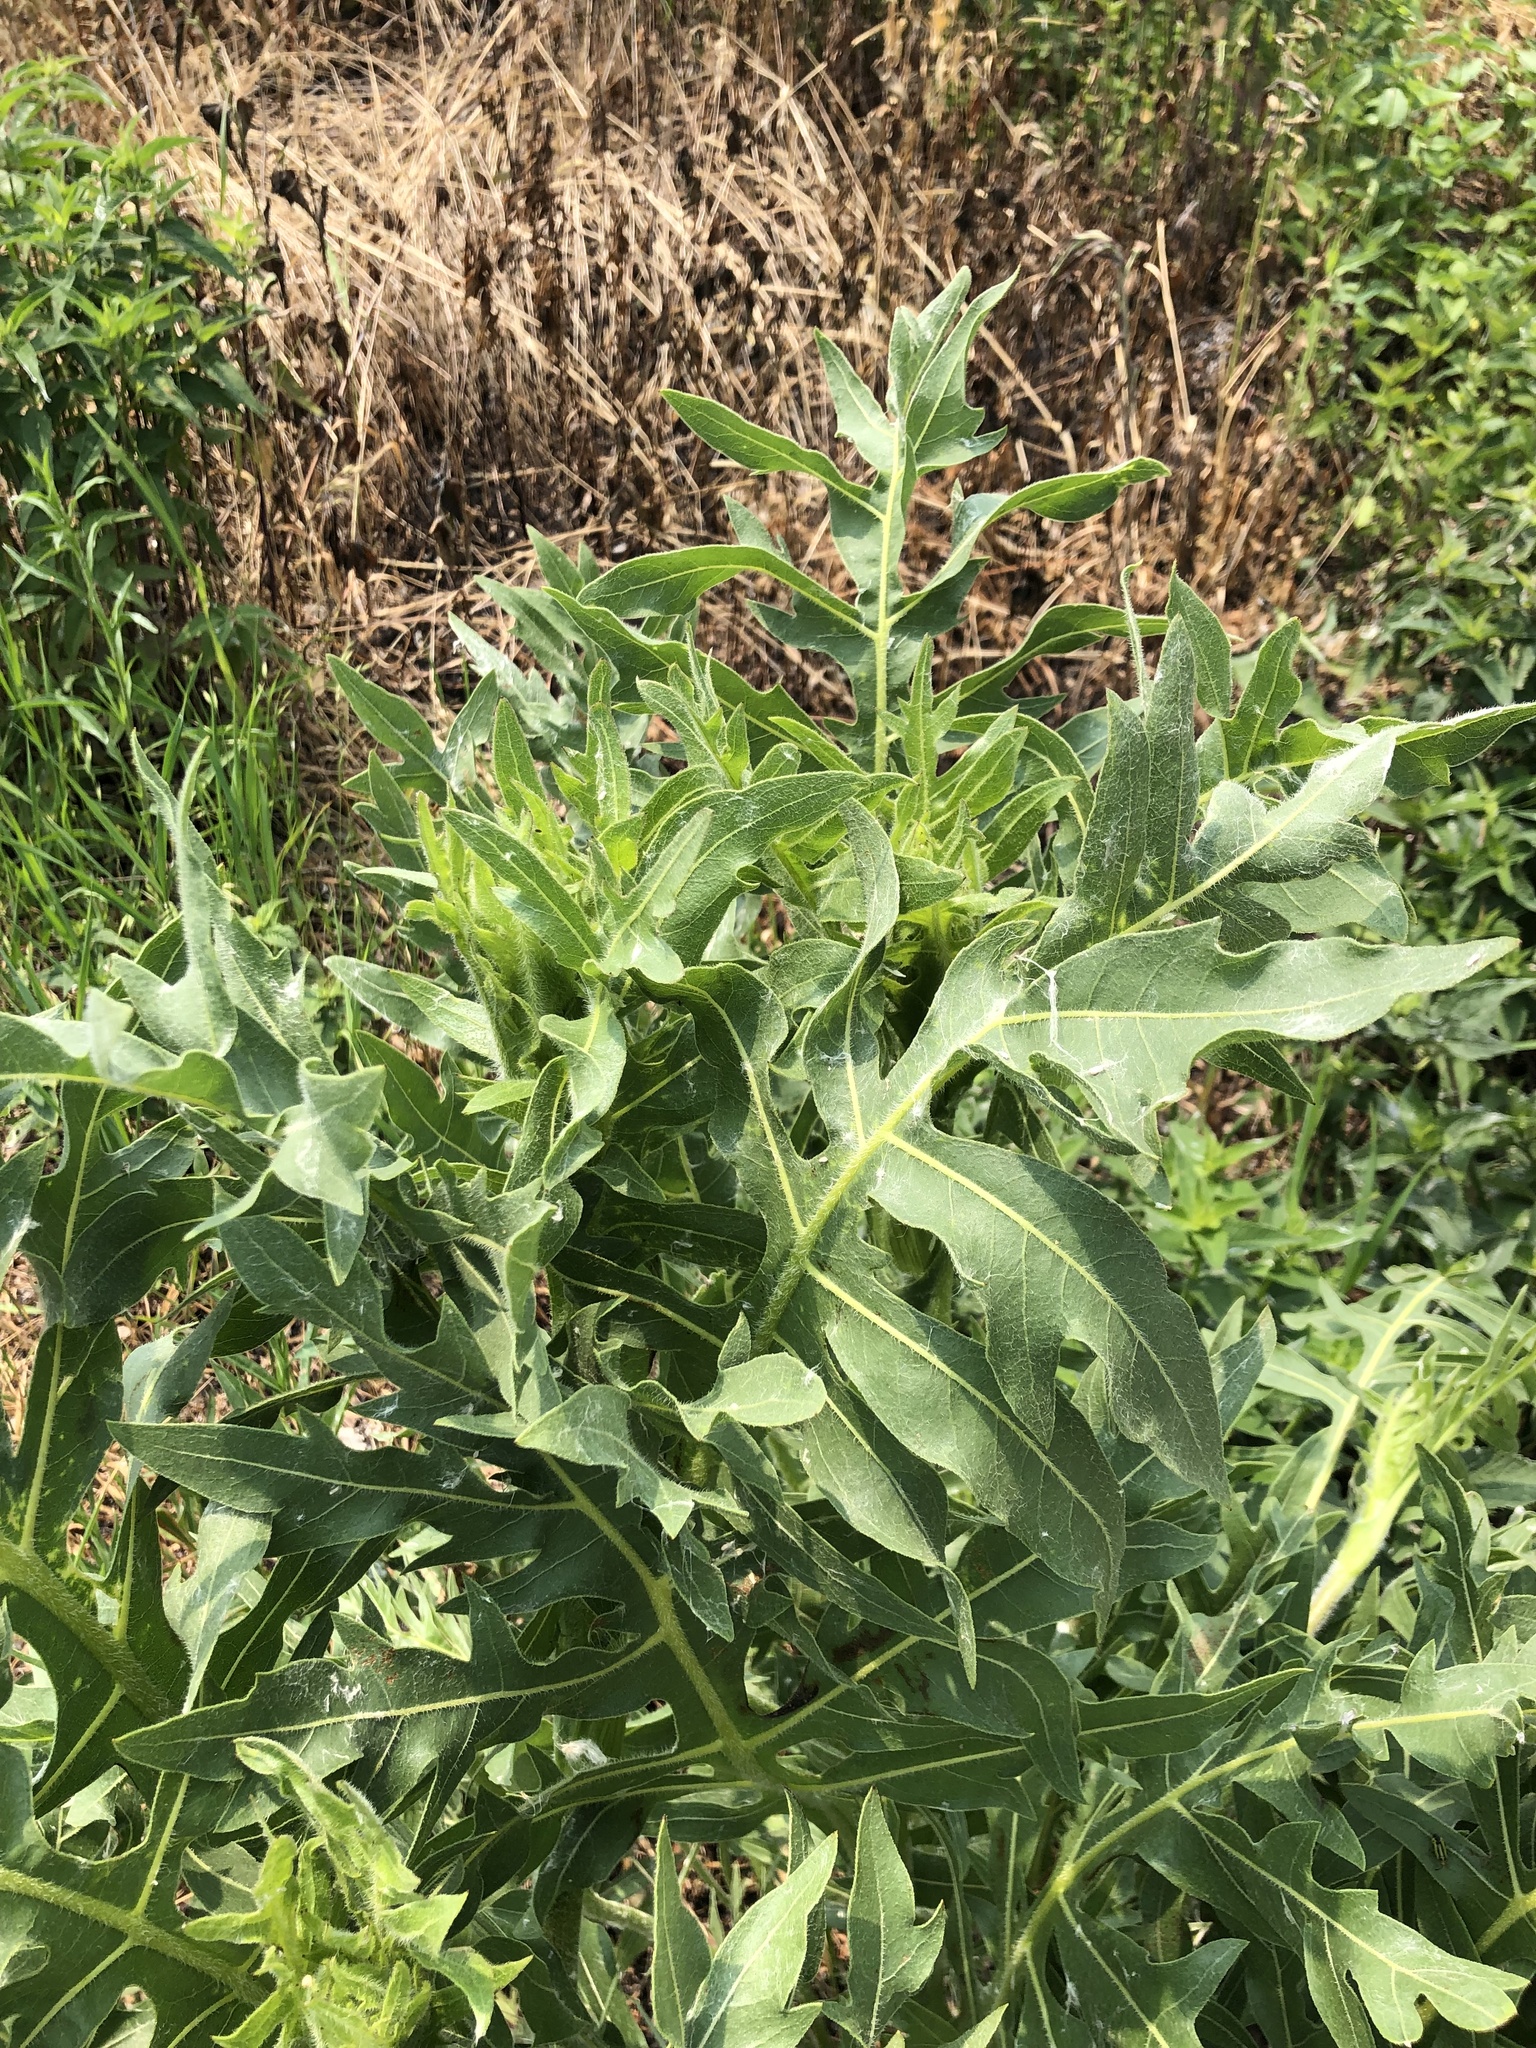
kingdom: Plantae
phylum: Tracheophyta
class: Magnoliopsida
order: Asterales
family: Asteraceae
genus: Silphium
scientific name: Silphium laciniatum
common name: Polarplant
